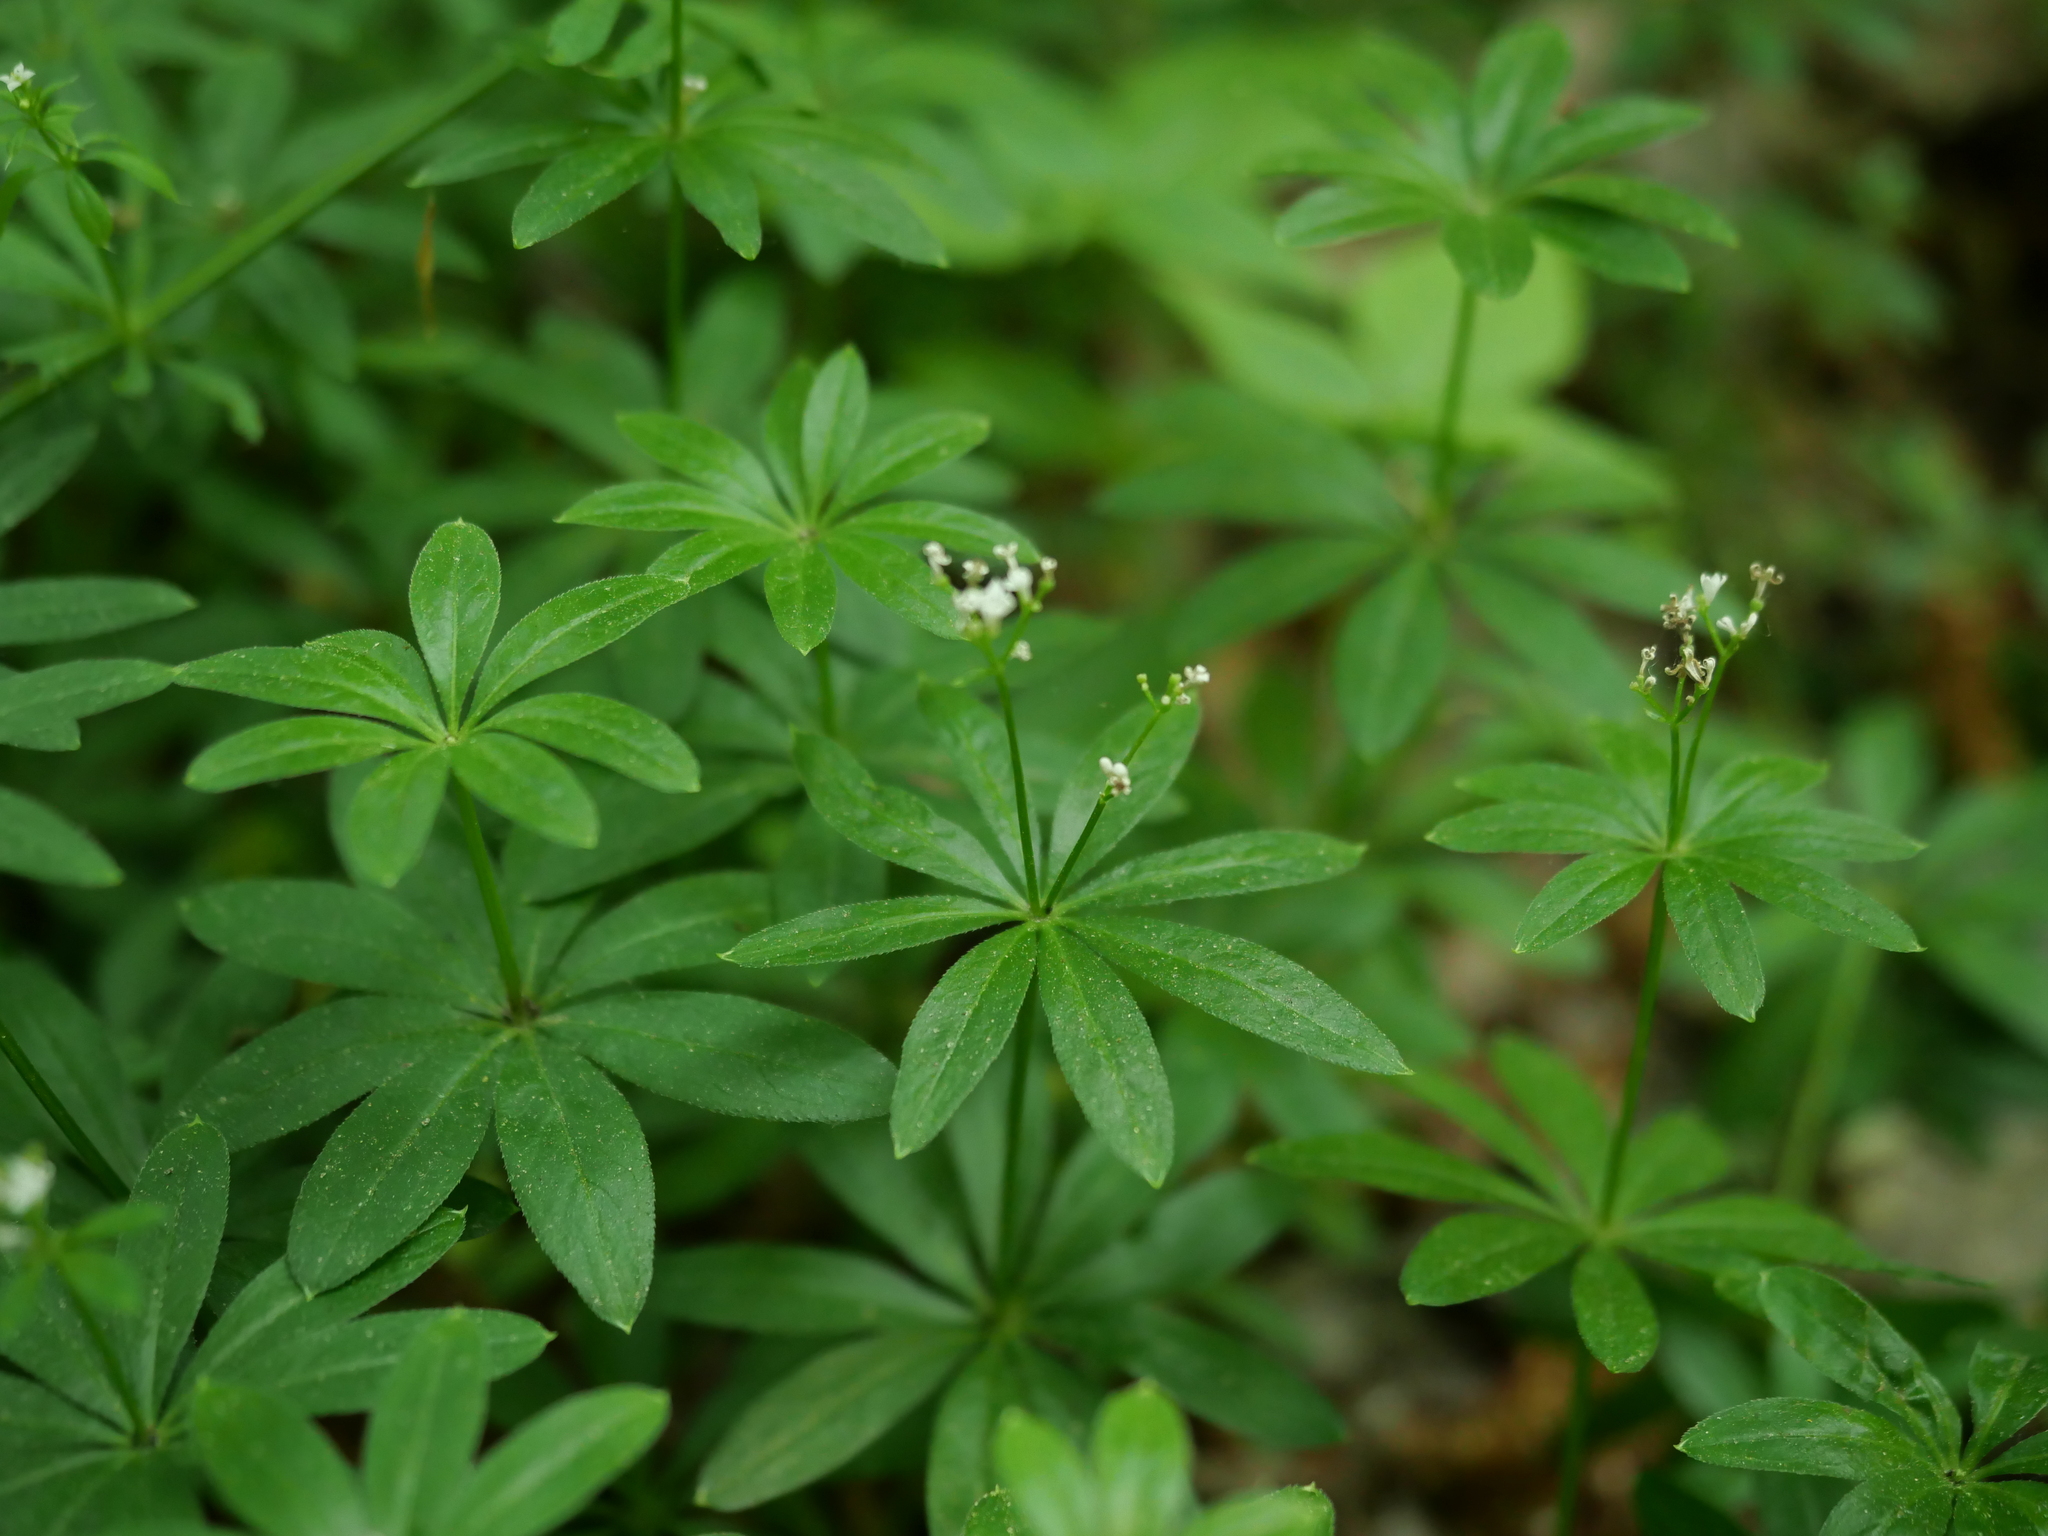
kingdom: Plantae
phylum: Tracheophyta
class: Magnoliopsida
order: Gentianales
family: Rubiaceae
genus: Galium
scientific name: Galium odoratum
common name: Sweet woodruff
